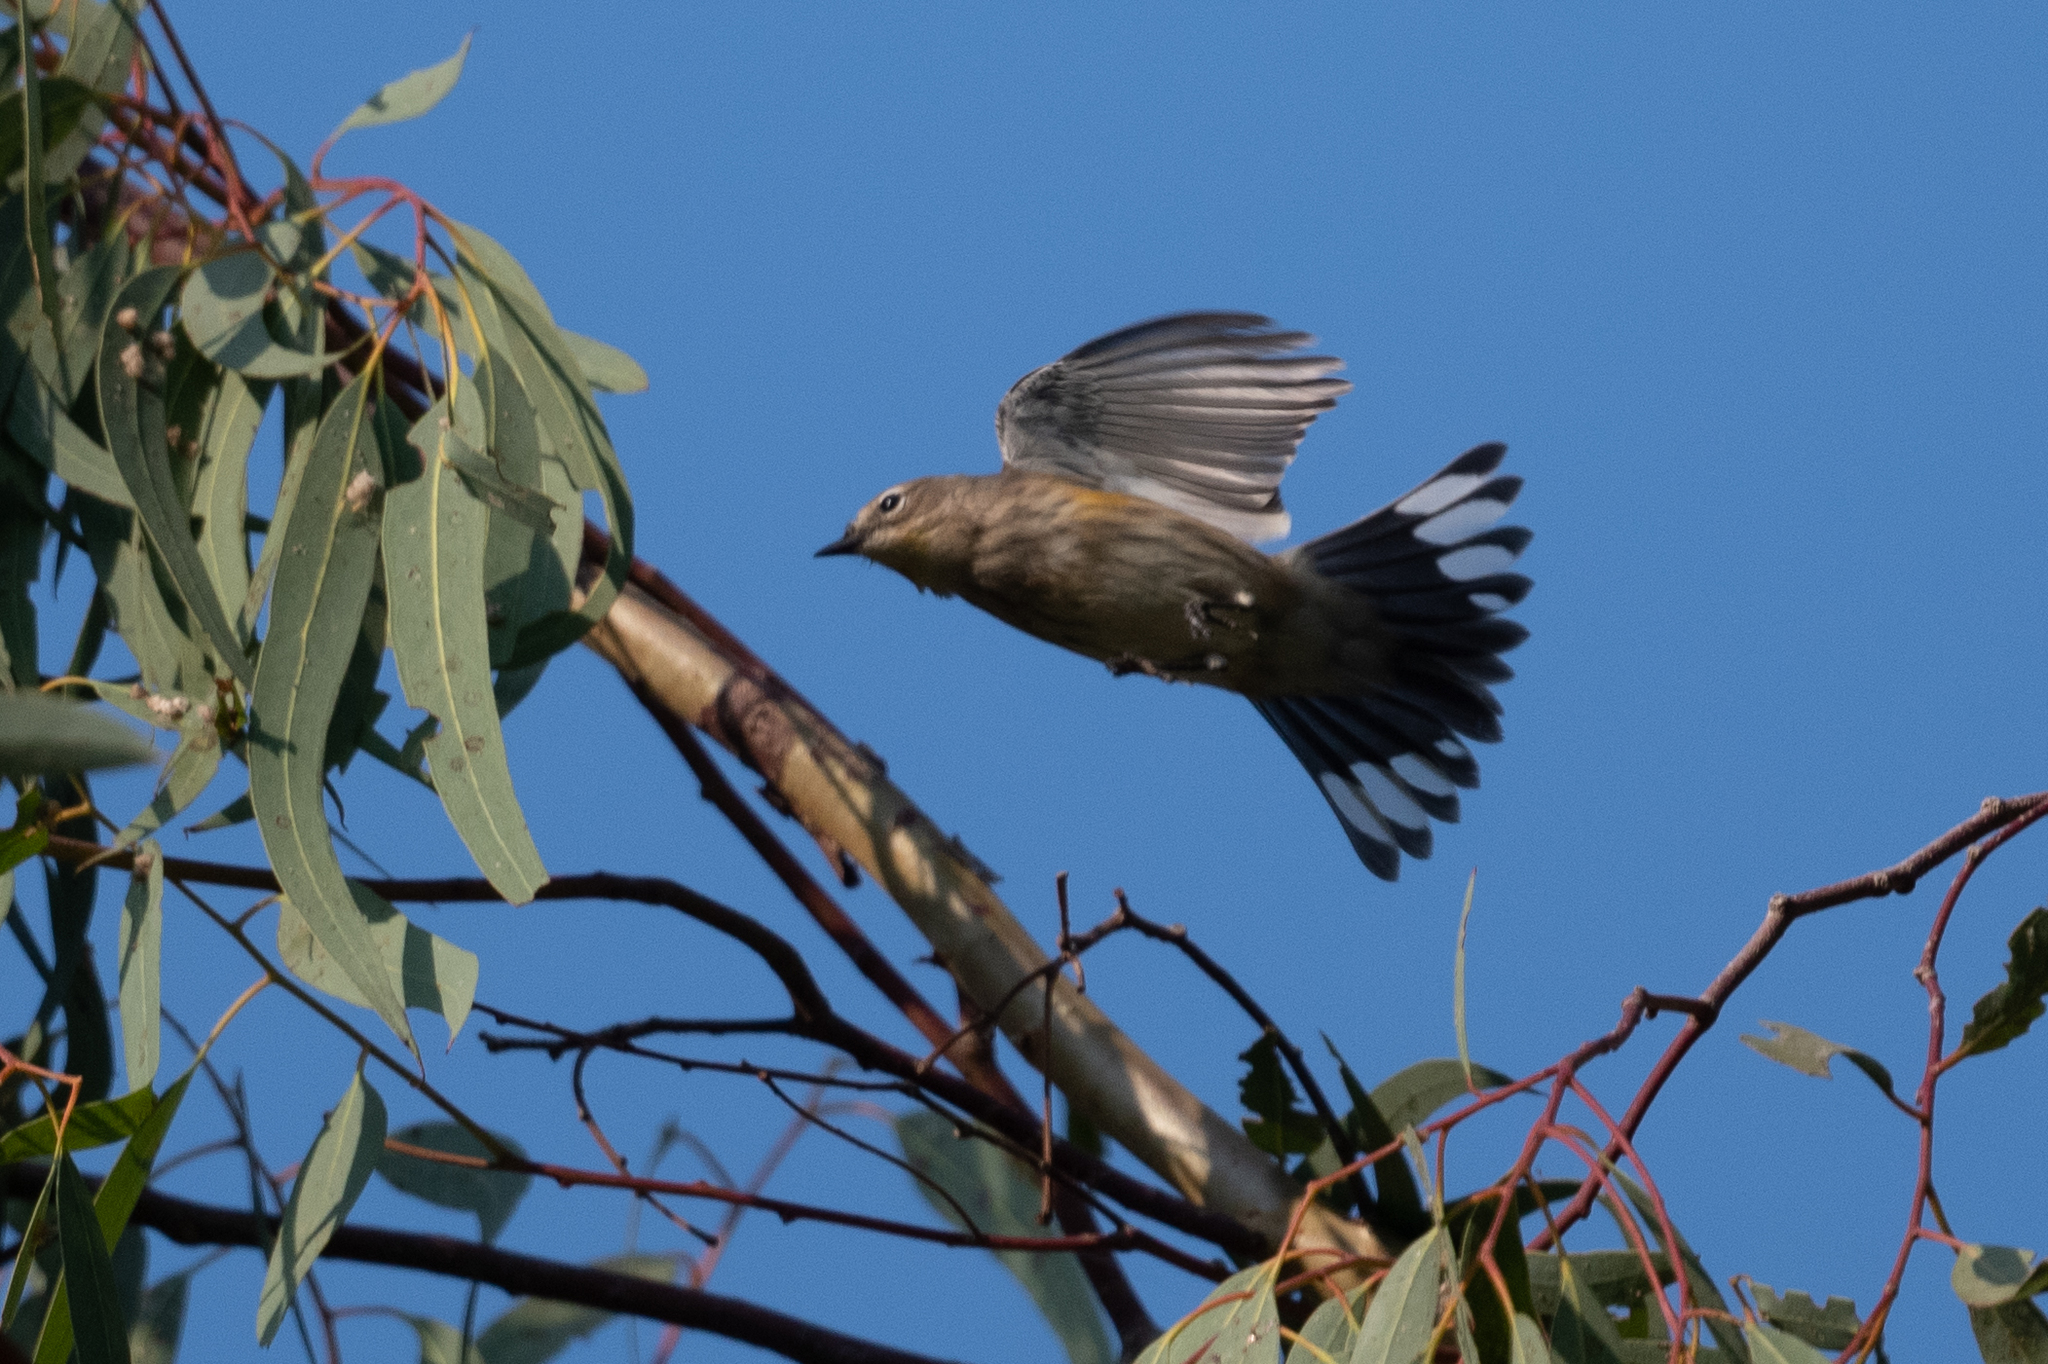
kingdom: Animalia
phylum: Chordata
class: Aves
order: Passeriformes
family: Parulidae
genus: Setophaga
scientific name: Setophaga coronata
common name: Myrtle warbler
